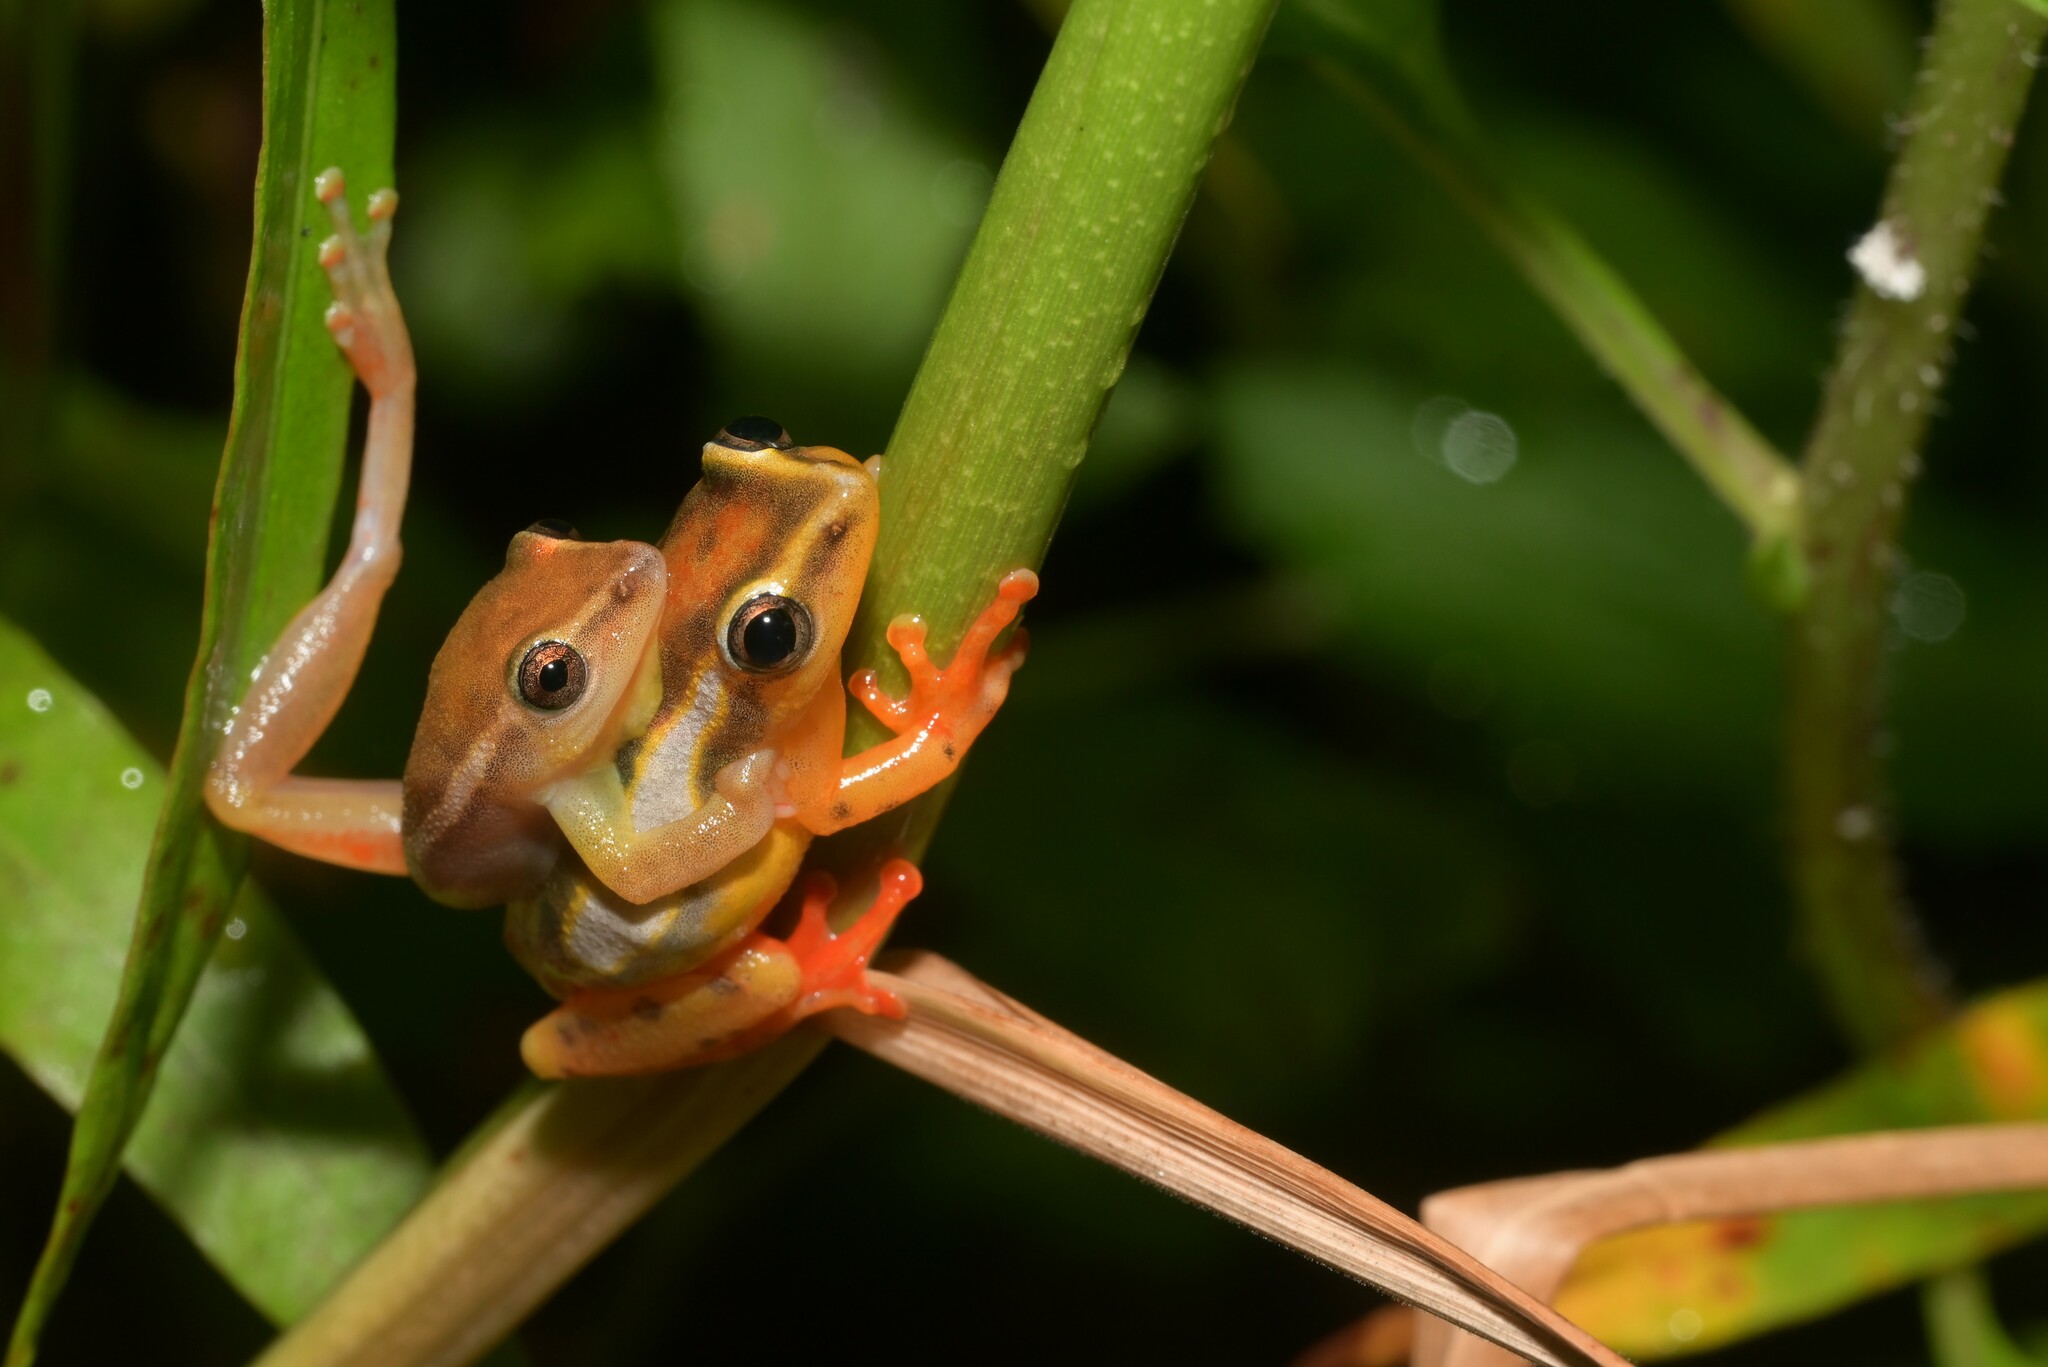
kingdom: Animalia
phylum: Chordata
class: Amphibia
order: Anura
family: Hyperoliidae
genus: Hyperolius
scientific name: Hyperolius mitchelli
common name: Mitchell's reed frog
